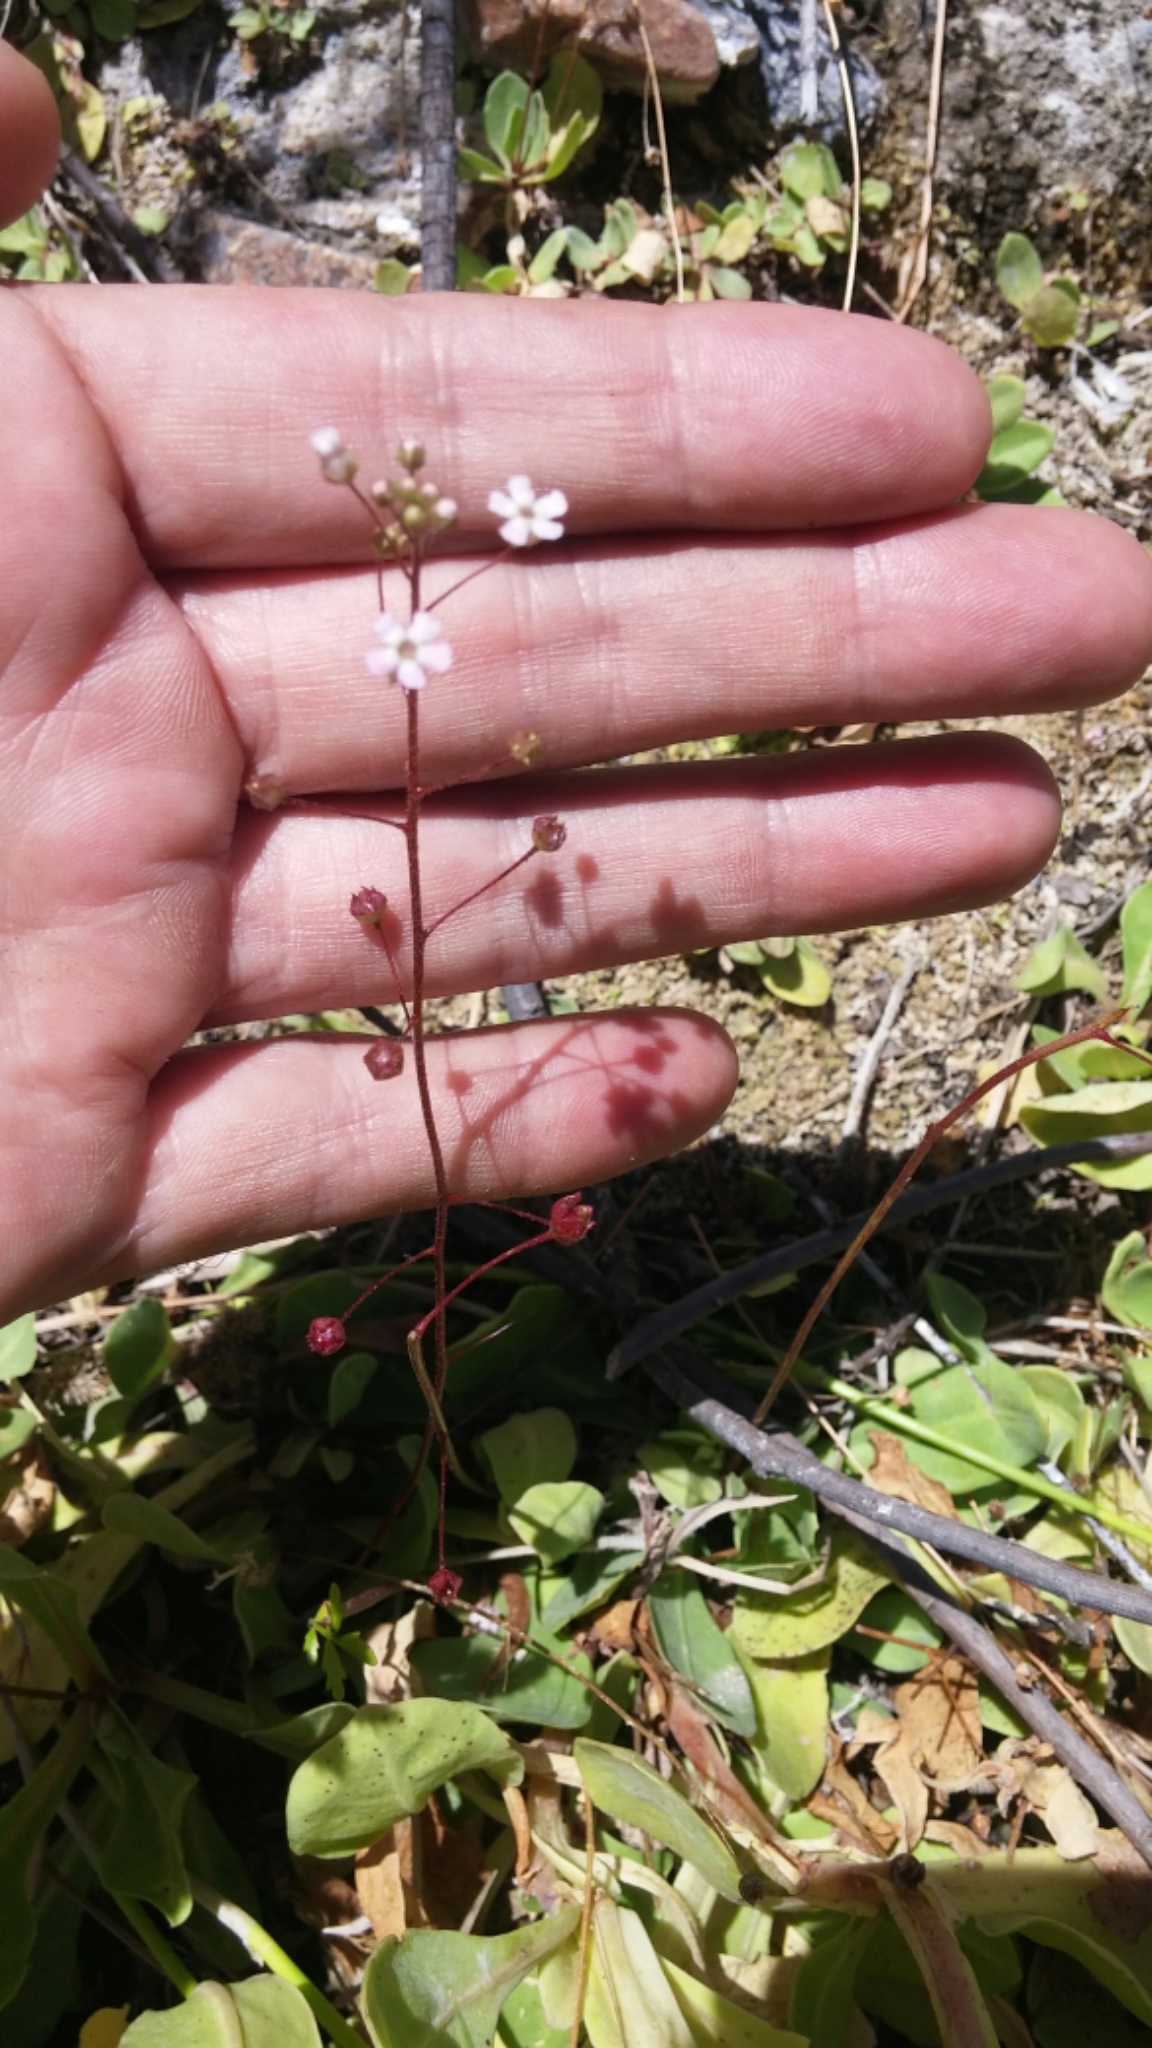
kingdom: Plantae
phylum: Tracheophyta
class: Magnoliopsida
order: Ericales
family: Primulaceae
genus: Samolus
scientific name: Samolus ebracteatus
